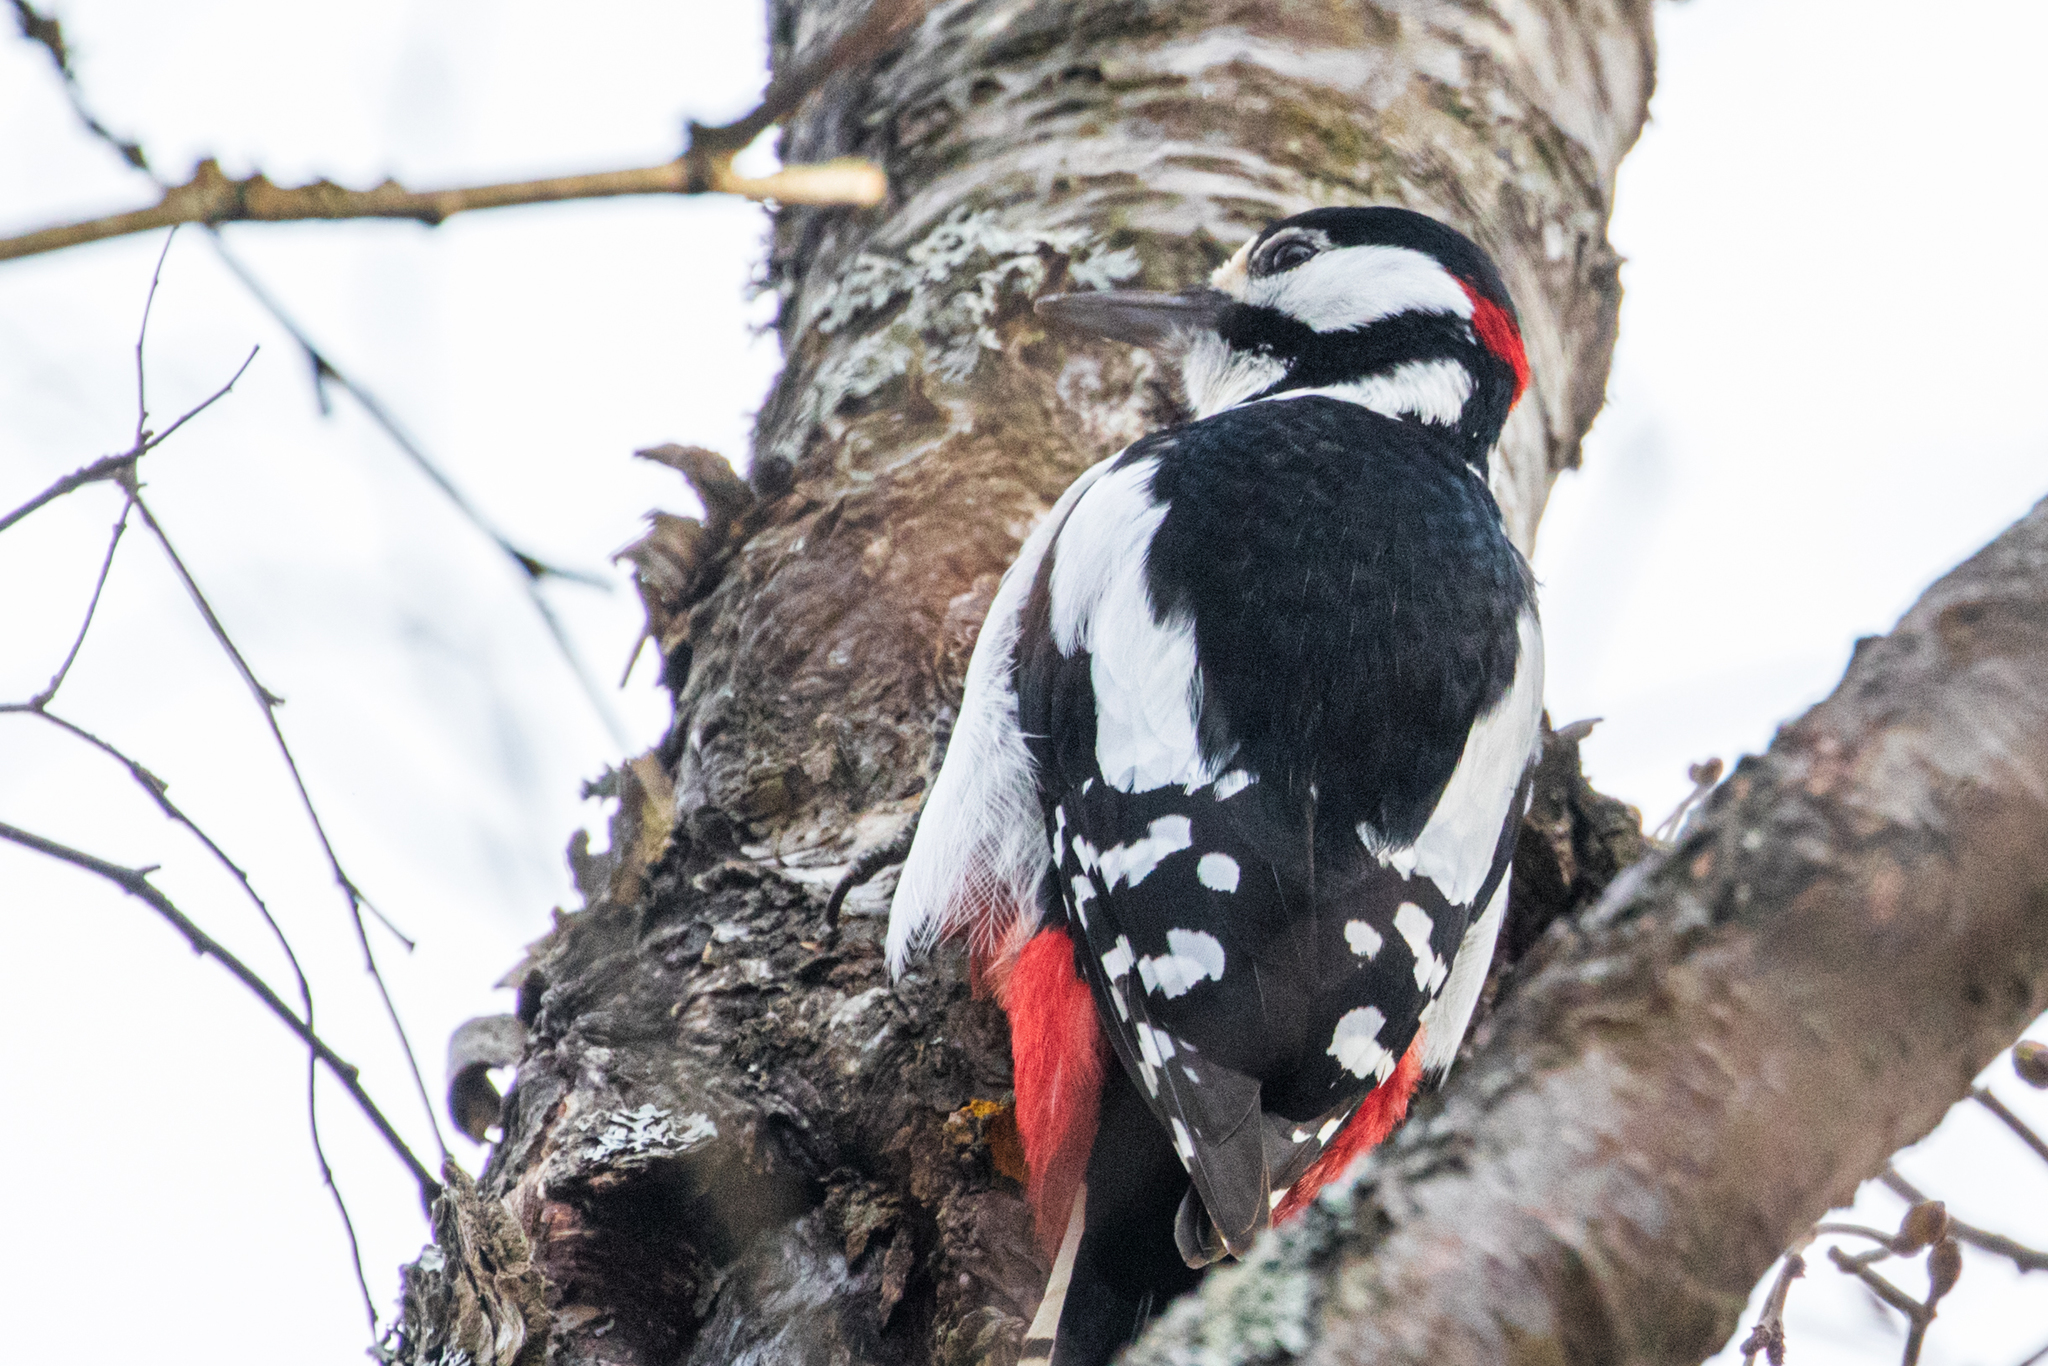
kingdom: Animalia
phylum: Chordata
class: Aves
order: Piciformes
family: Picidae
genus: Dendrocopos
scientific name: Dendrocopos major
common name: Great spotted woodpecker
